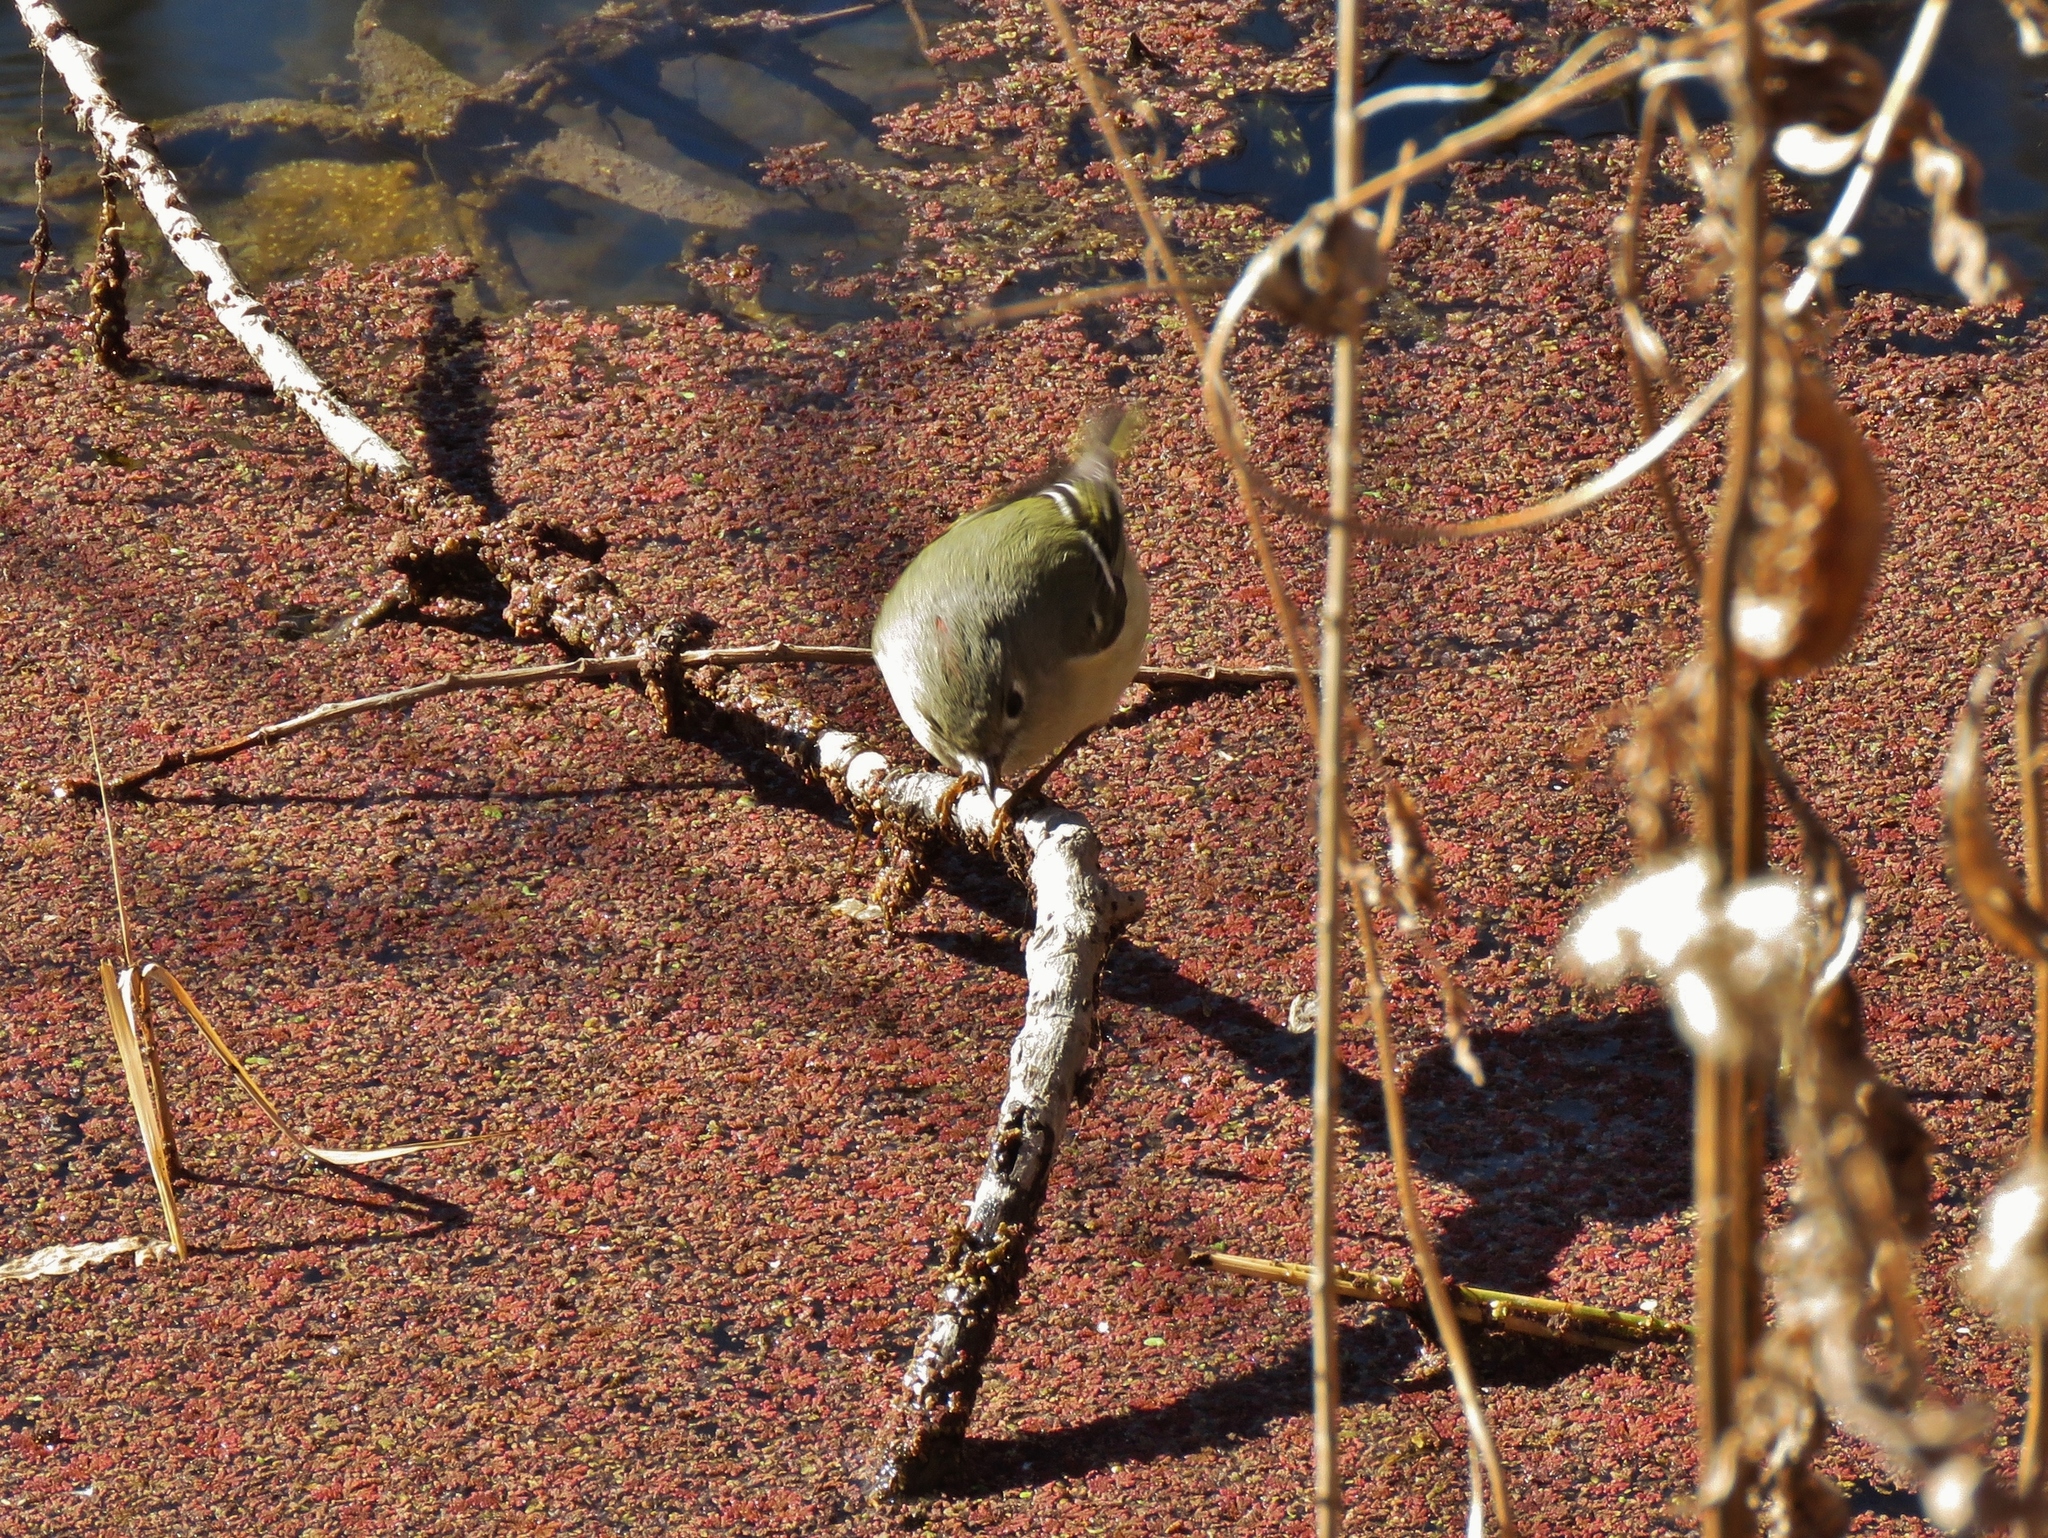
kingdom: Animalia
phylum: Chordata
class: Aves
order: Passeriformes
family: Regulidae
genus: Regulus
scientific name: Regulus calendula
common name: Ruby-crowned kinglet
